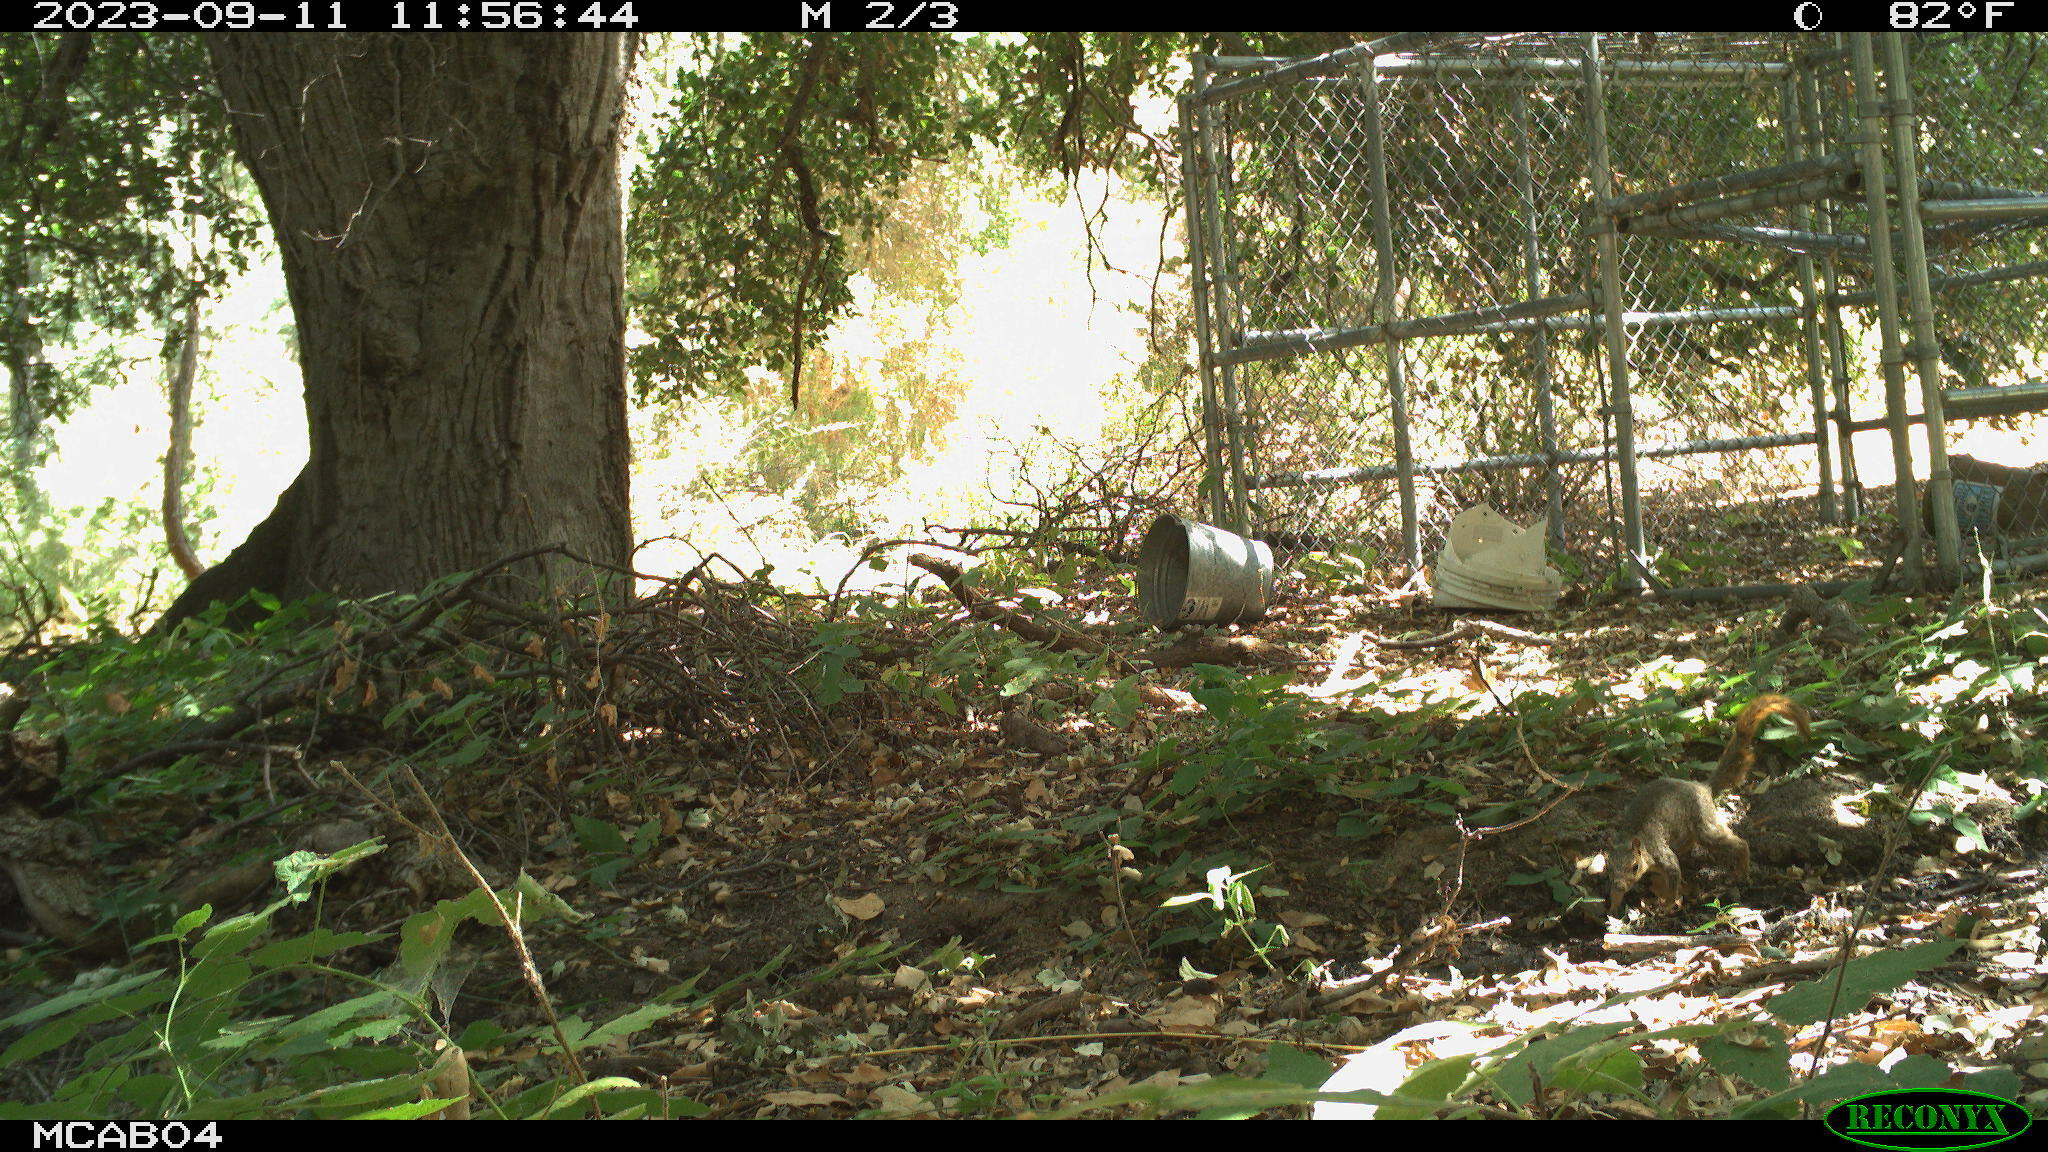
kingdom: Animalia
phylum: Chordata
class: Mammalia
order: Rodentia
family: Sciuridae
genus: Sciurus
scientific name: Sciurus niger
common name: Fox squirrel
